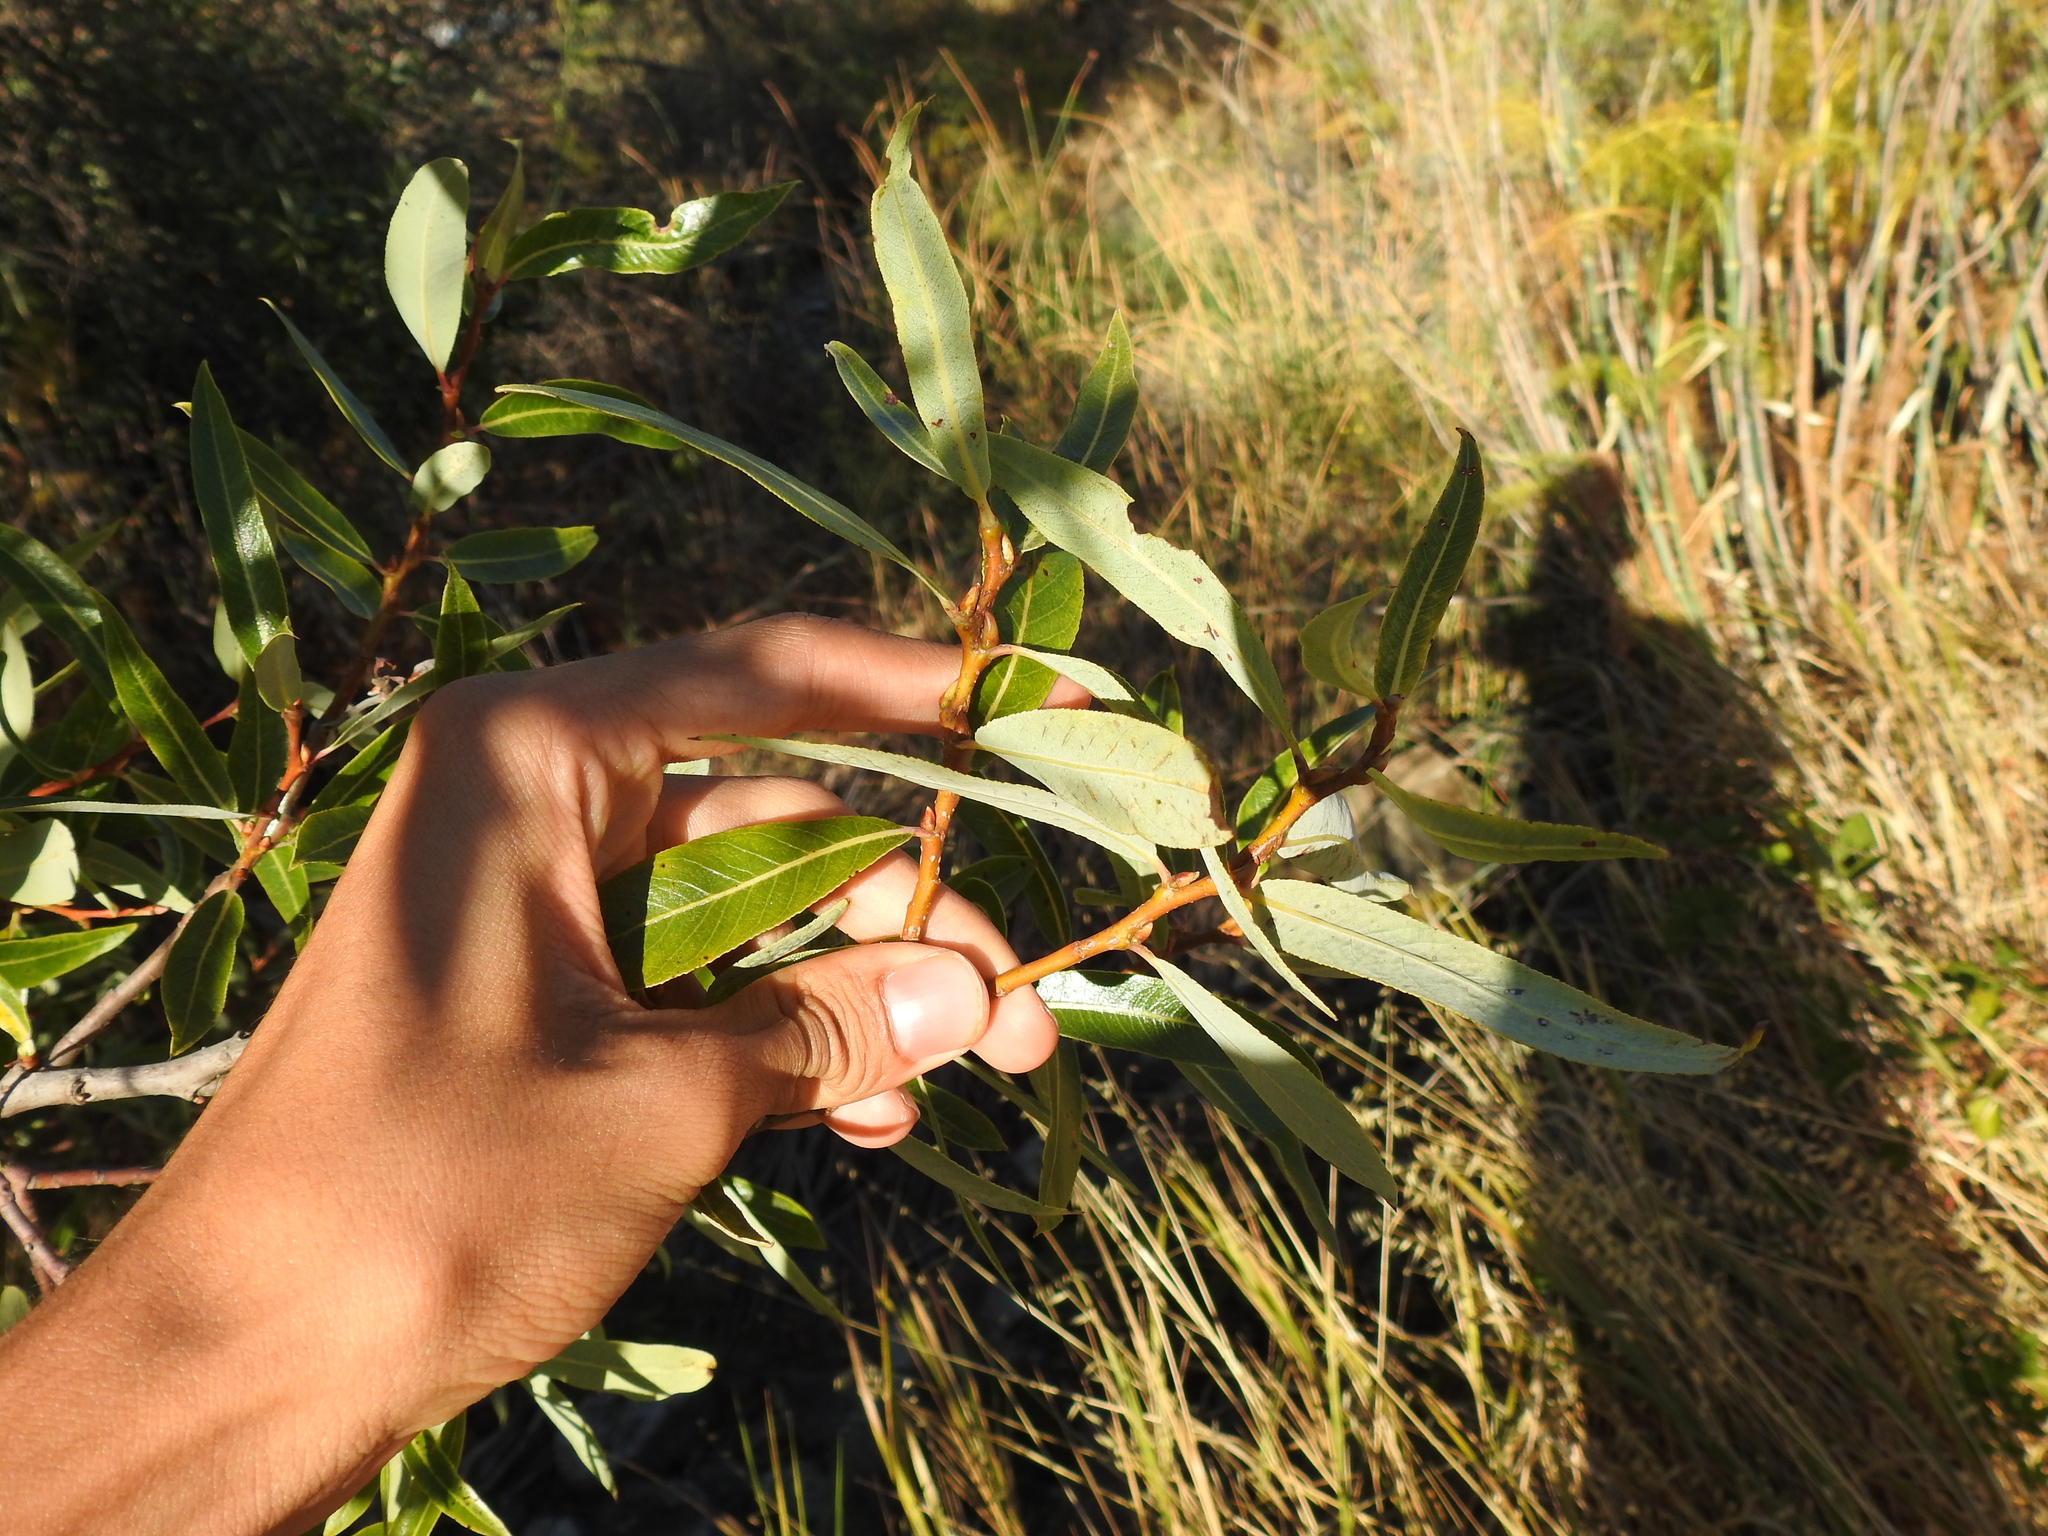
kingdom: Plantae
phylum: Tracheophyta
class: Magnoliopsida
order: Malpighiales
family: Salicaceae
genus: Salix
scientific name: Salix lasiolepis
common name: Arroyo willow
